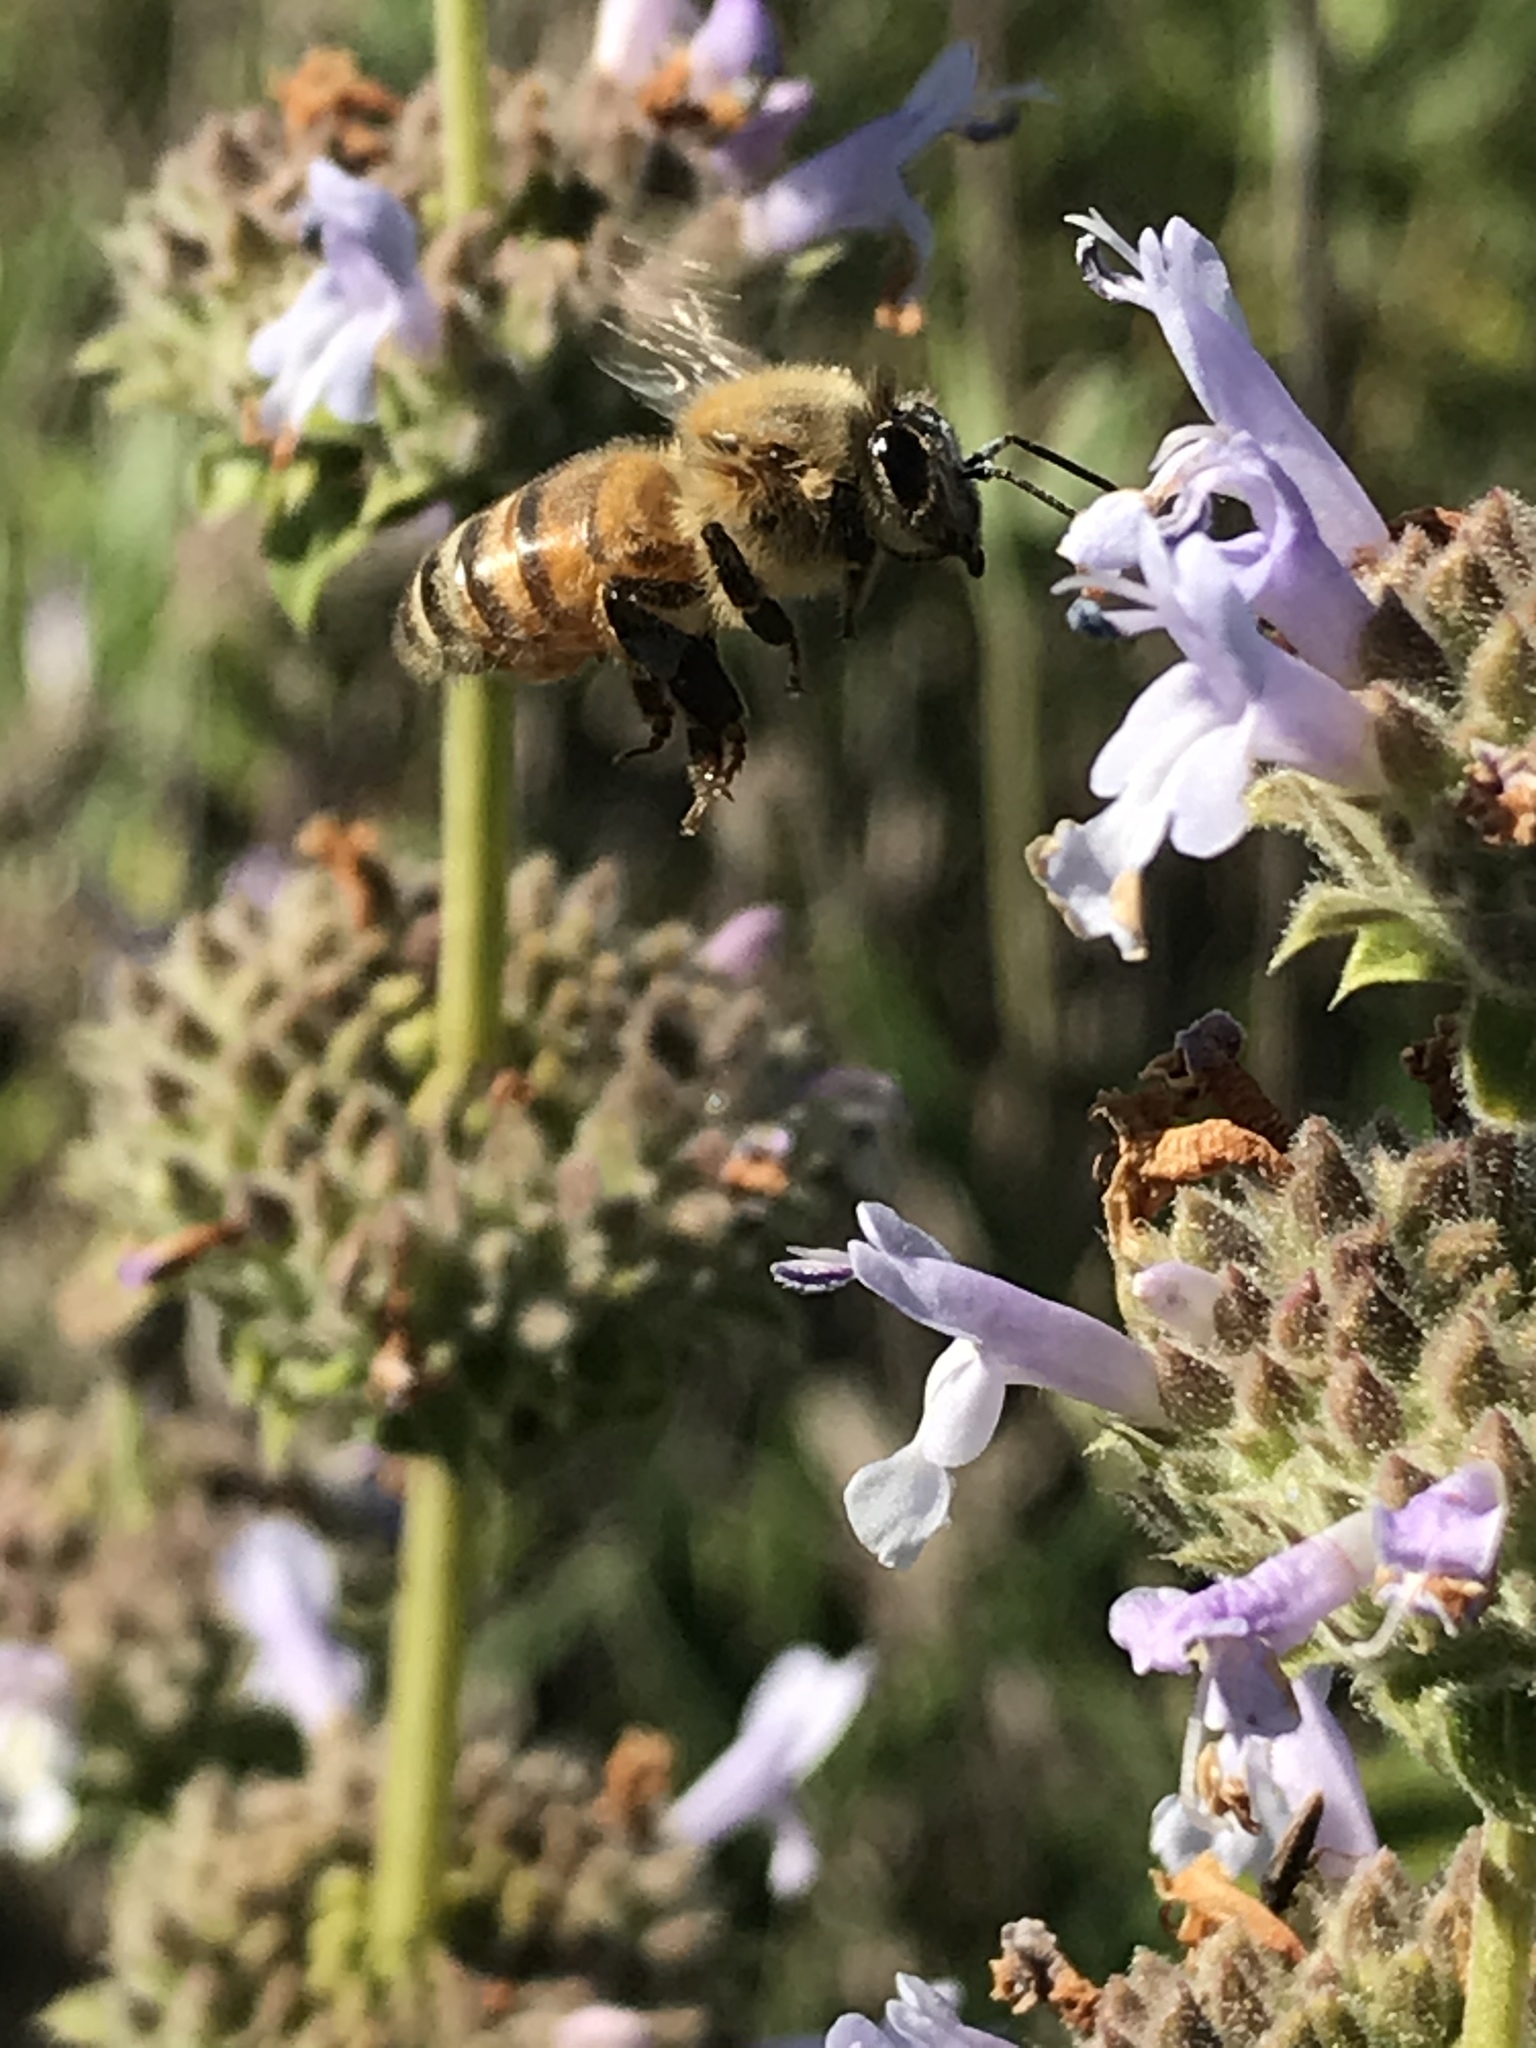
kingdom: Animalia
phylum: Arthropoda
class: Insecta
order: Hymenoptera
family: Apidae
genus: Apis
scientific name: Apis mellifera
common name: Honey bee
